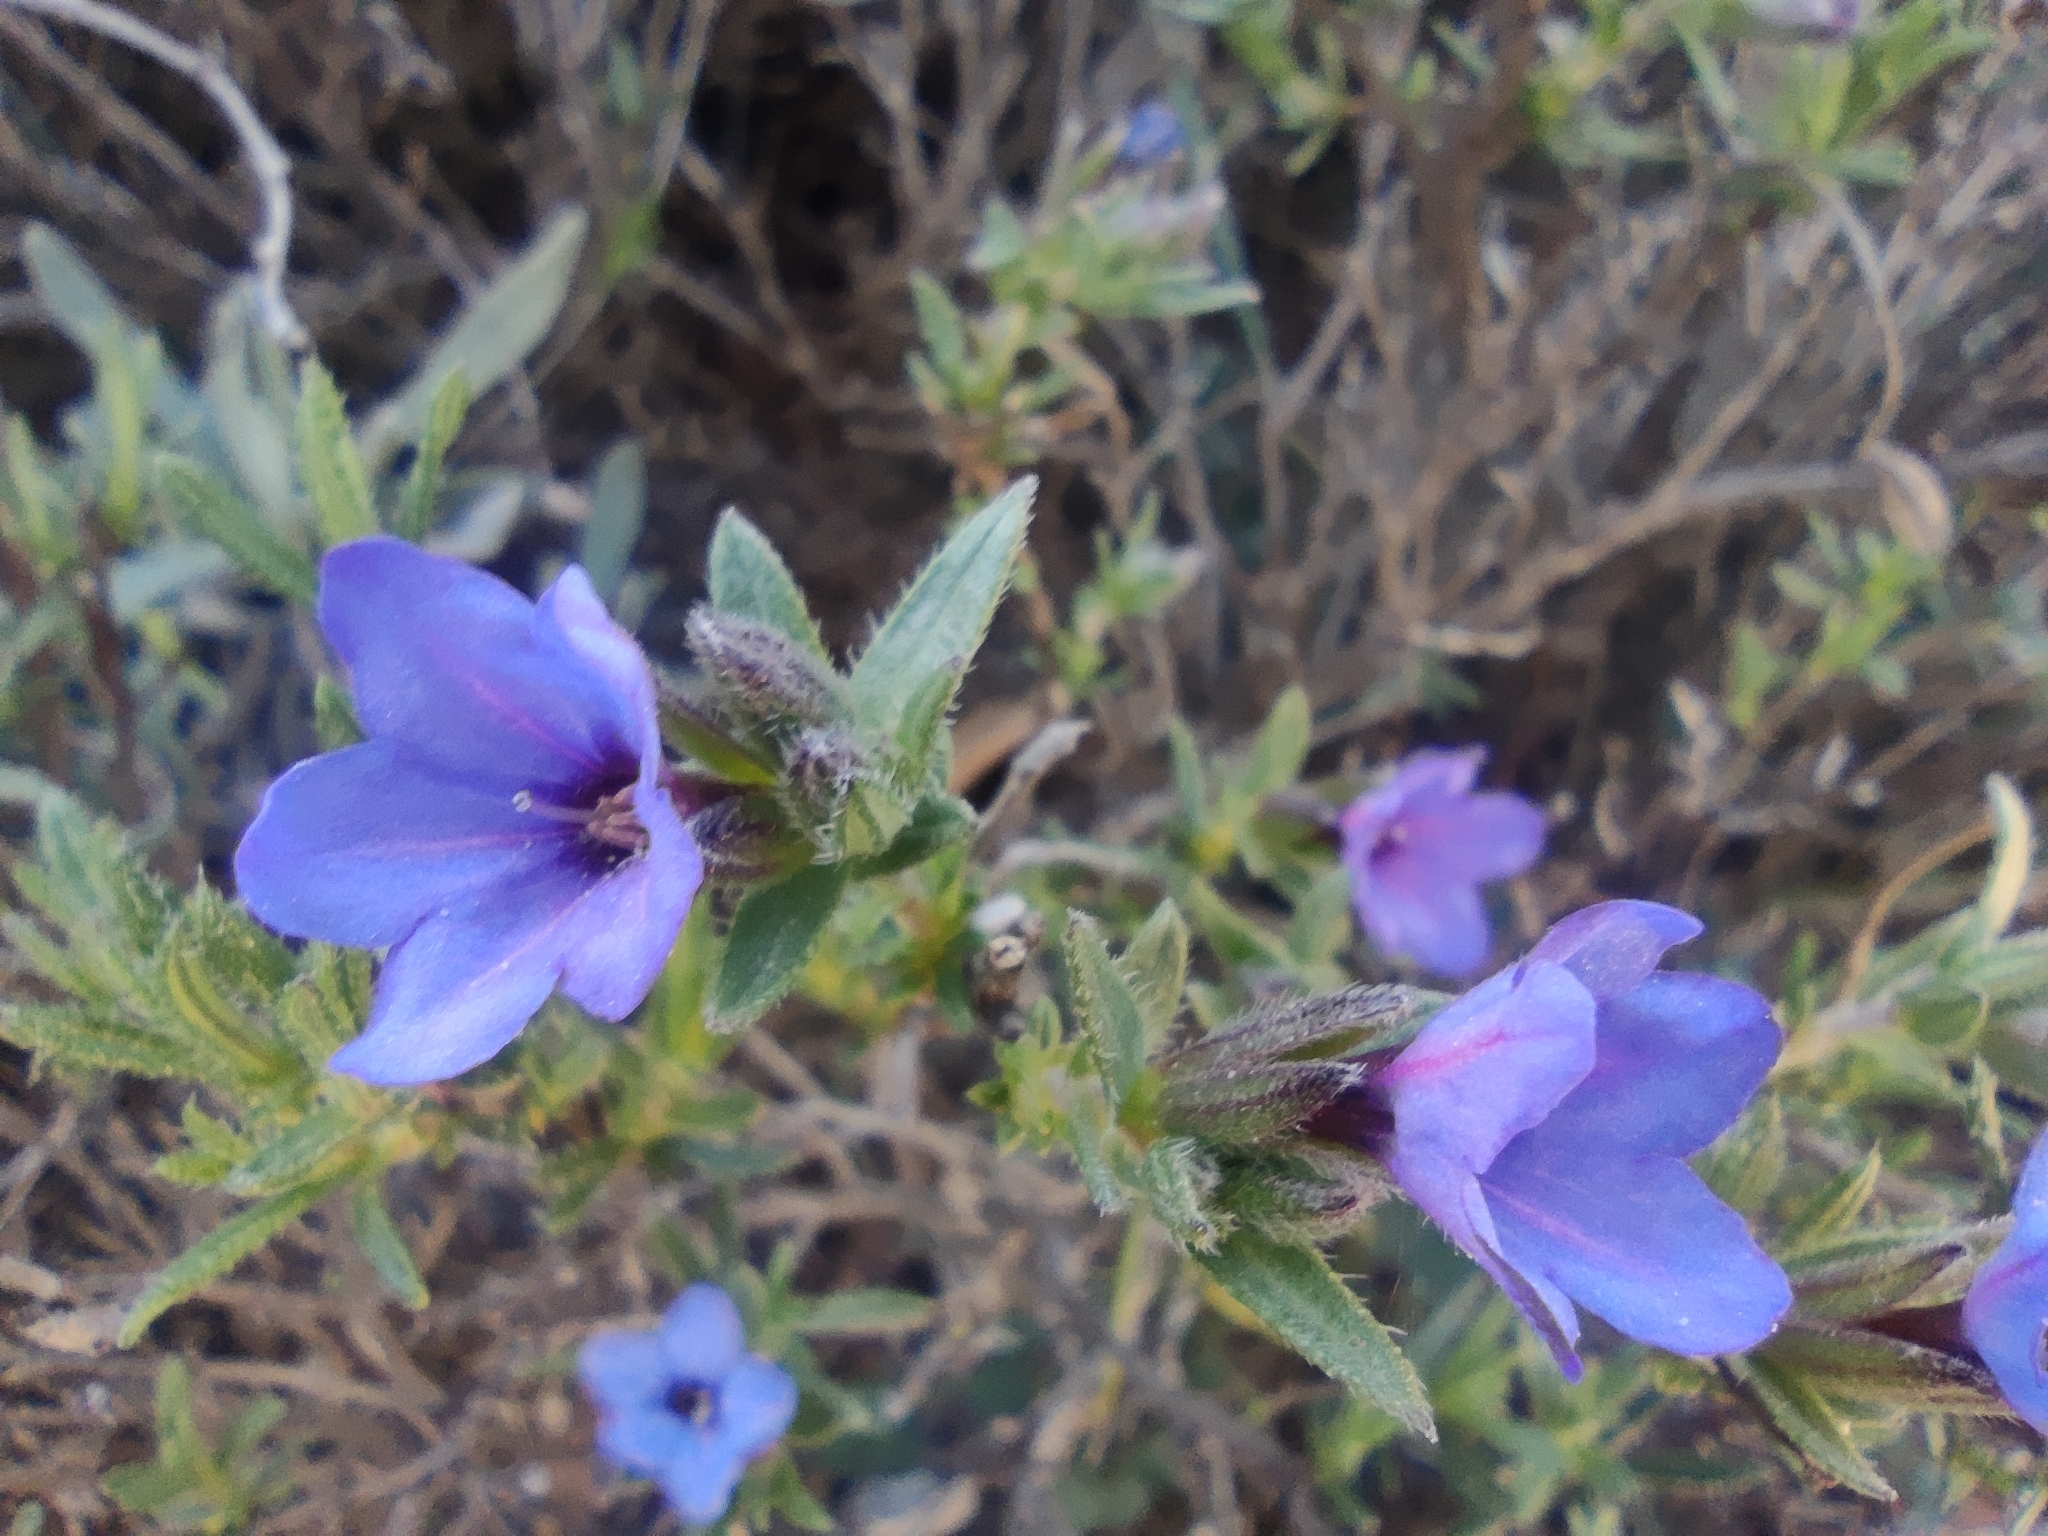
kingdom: Plantae
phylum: Tracheophyta
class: Magnoliopsida
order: Boraginales
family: Boraginaceae
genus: Lithodora
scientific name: Lithodora fruticosa
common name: Shrubby gromwell
